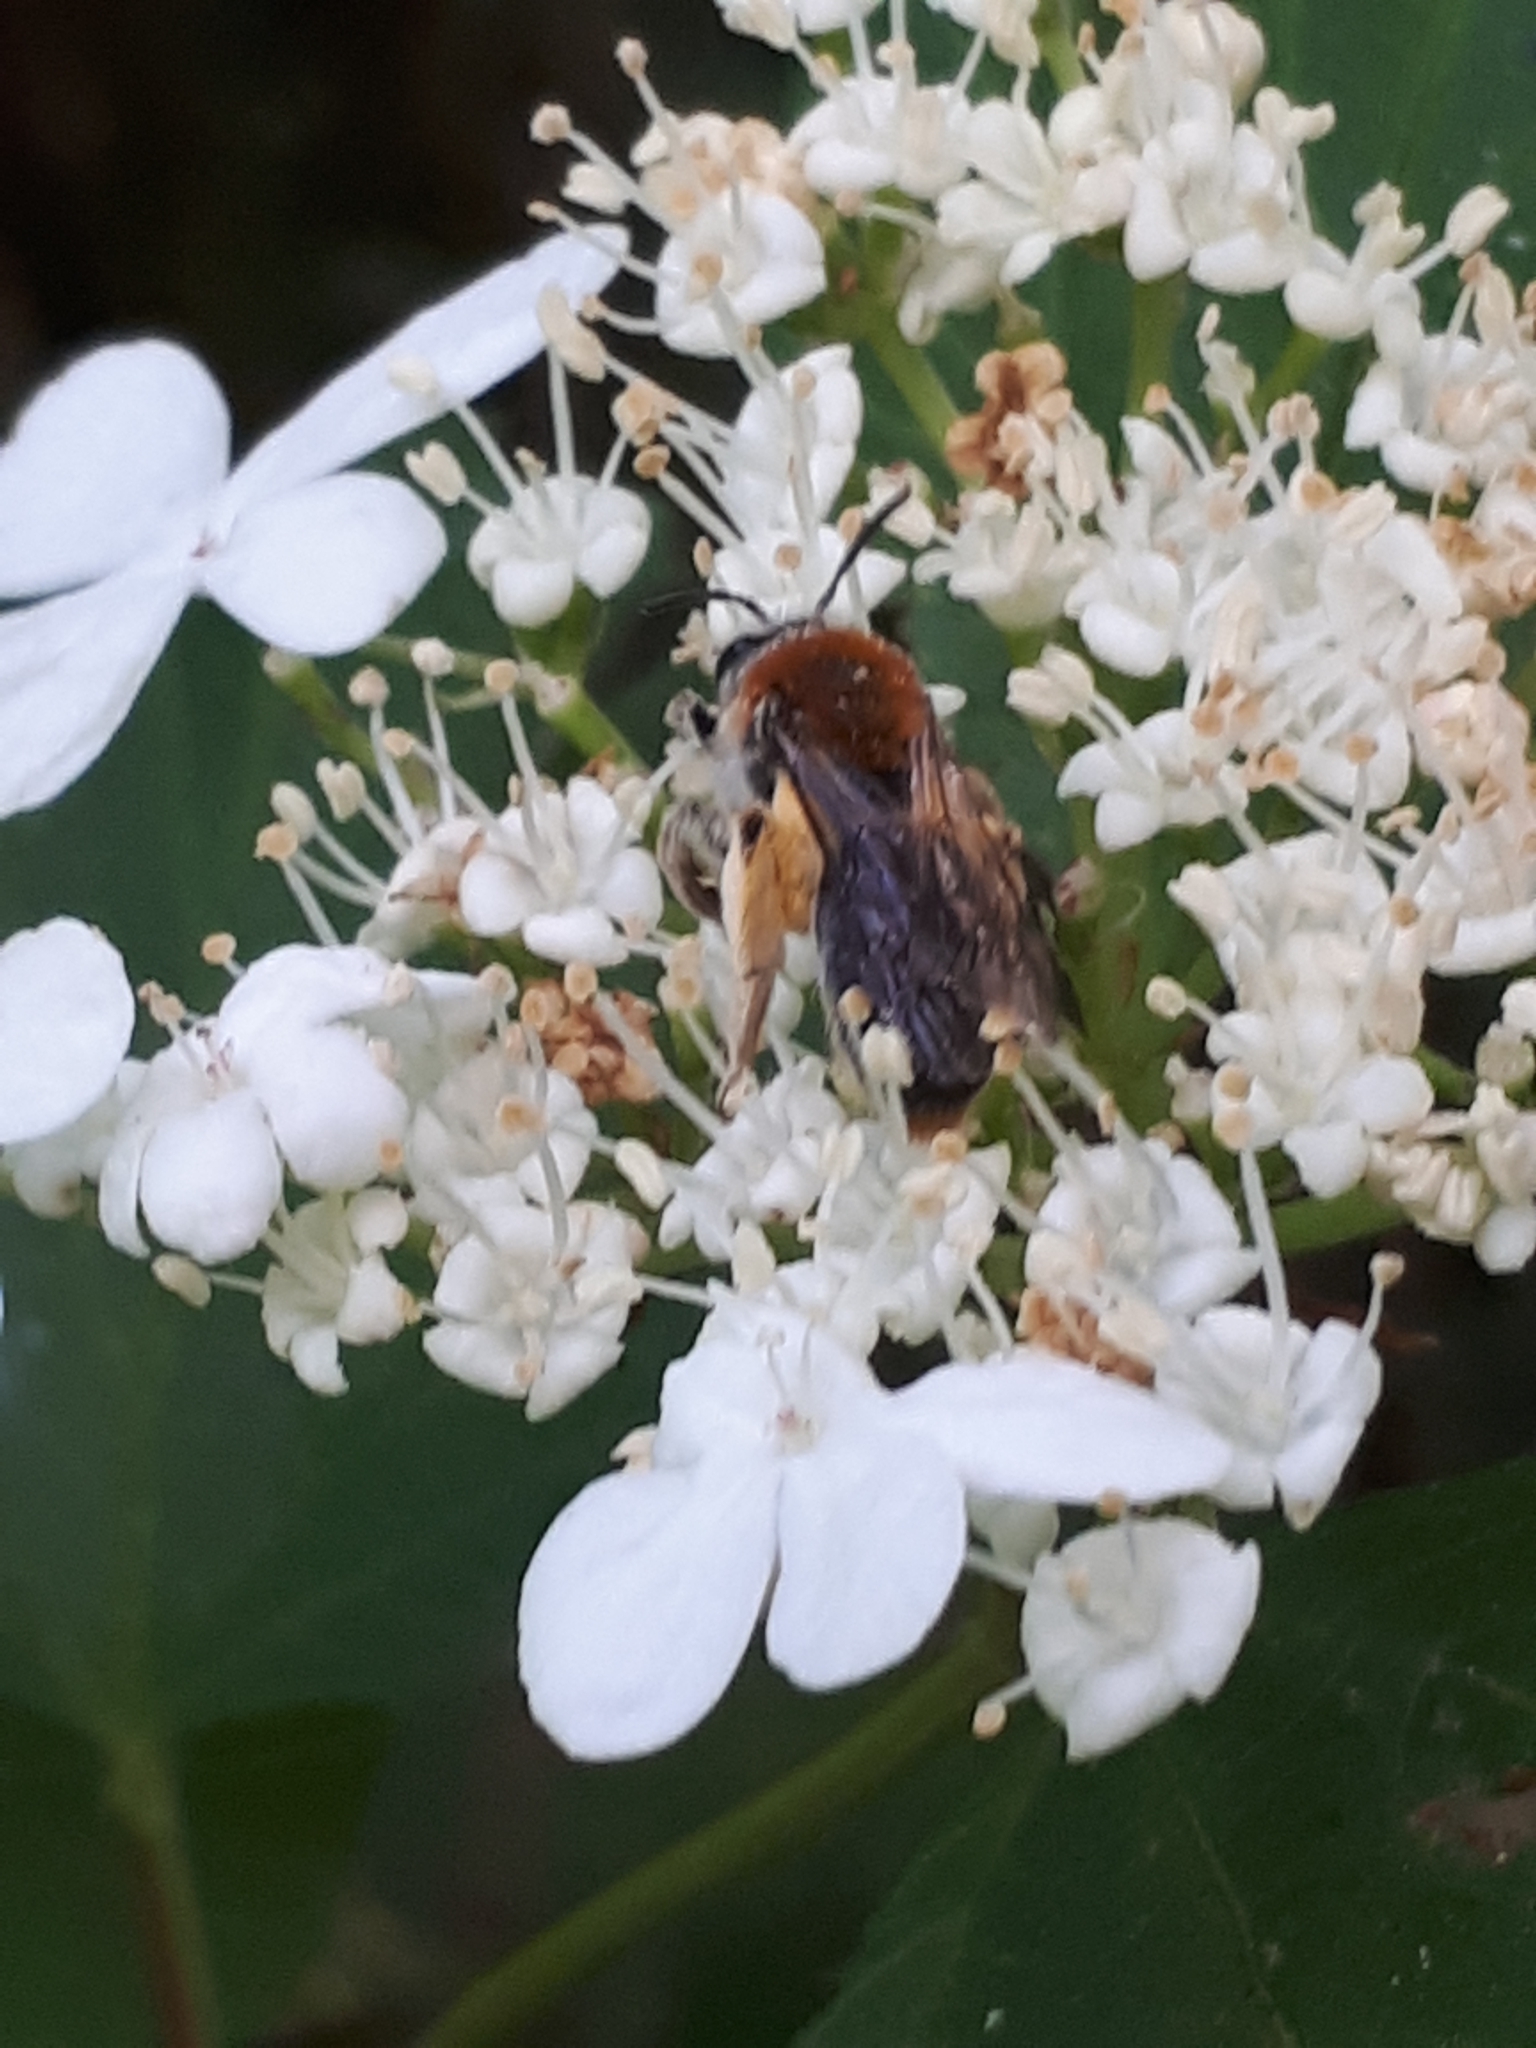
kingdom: Animalia
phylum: Arthropoda
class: Insecta
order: Hymenoptera
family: Andrenidae
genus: Andrena
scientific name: Andrena haemorrhoa
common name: Early mining bee
